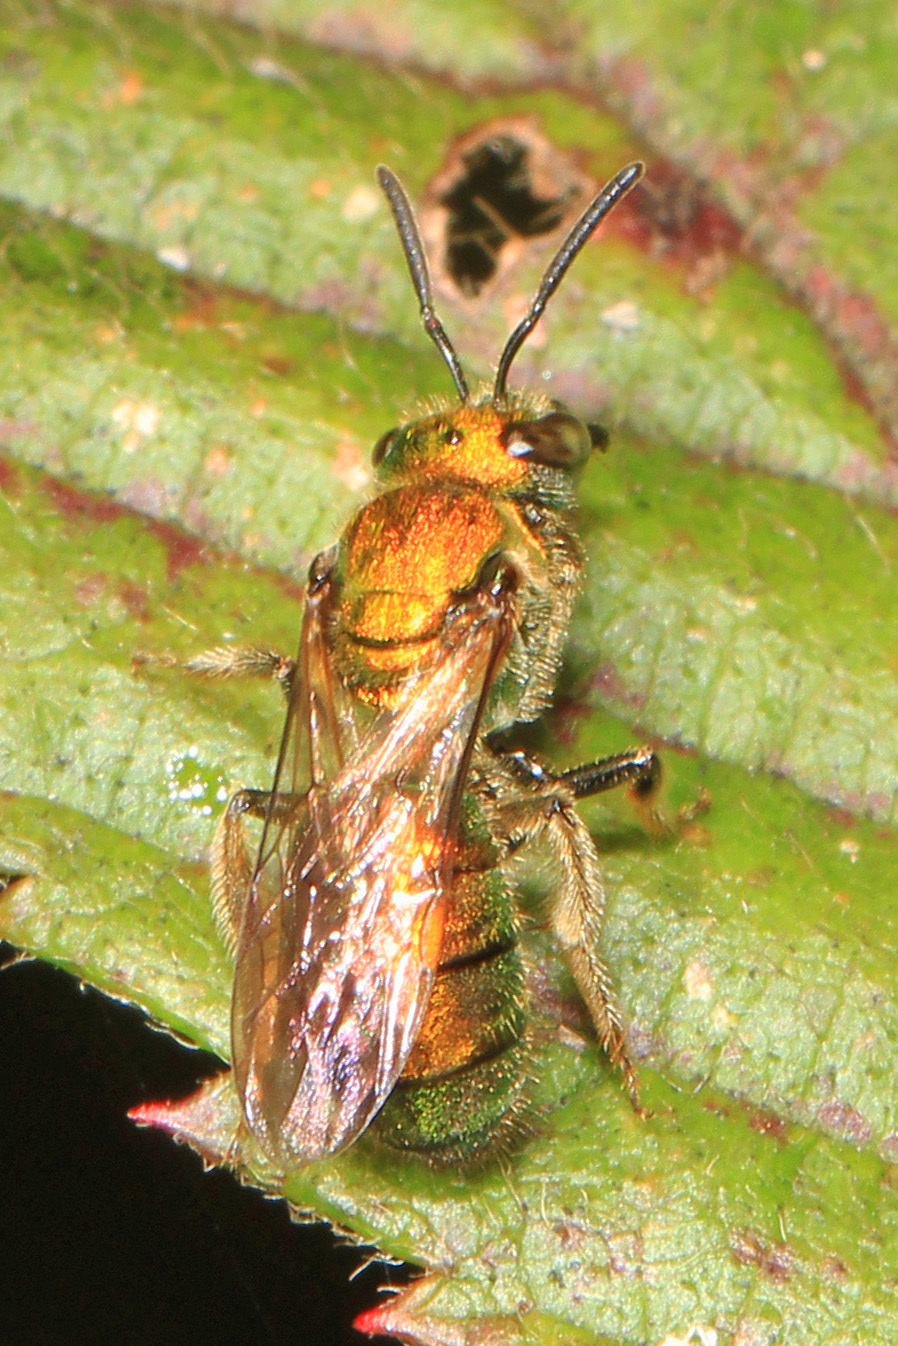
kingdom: Animalia
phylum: Arthropoda
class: Insecta
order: Hymenoptera
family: Halictidae
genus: Augochlora
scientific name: Augochlora pura
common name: Pure green sweat bee
